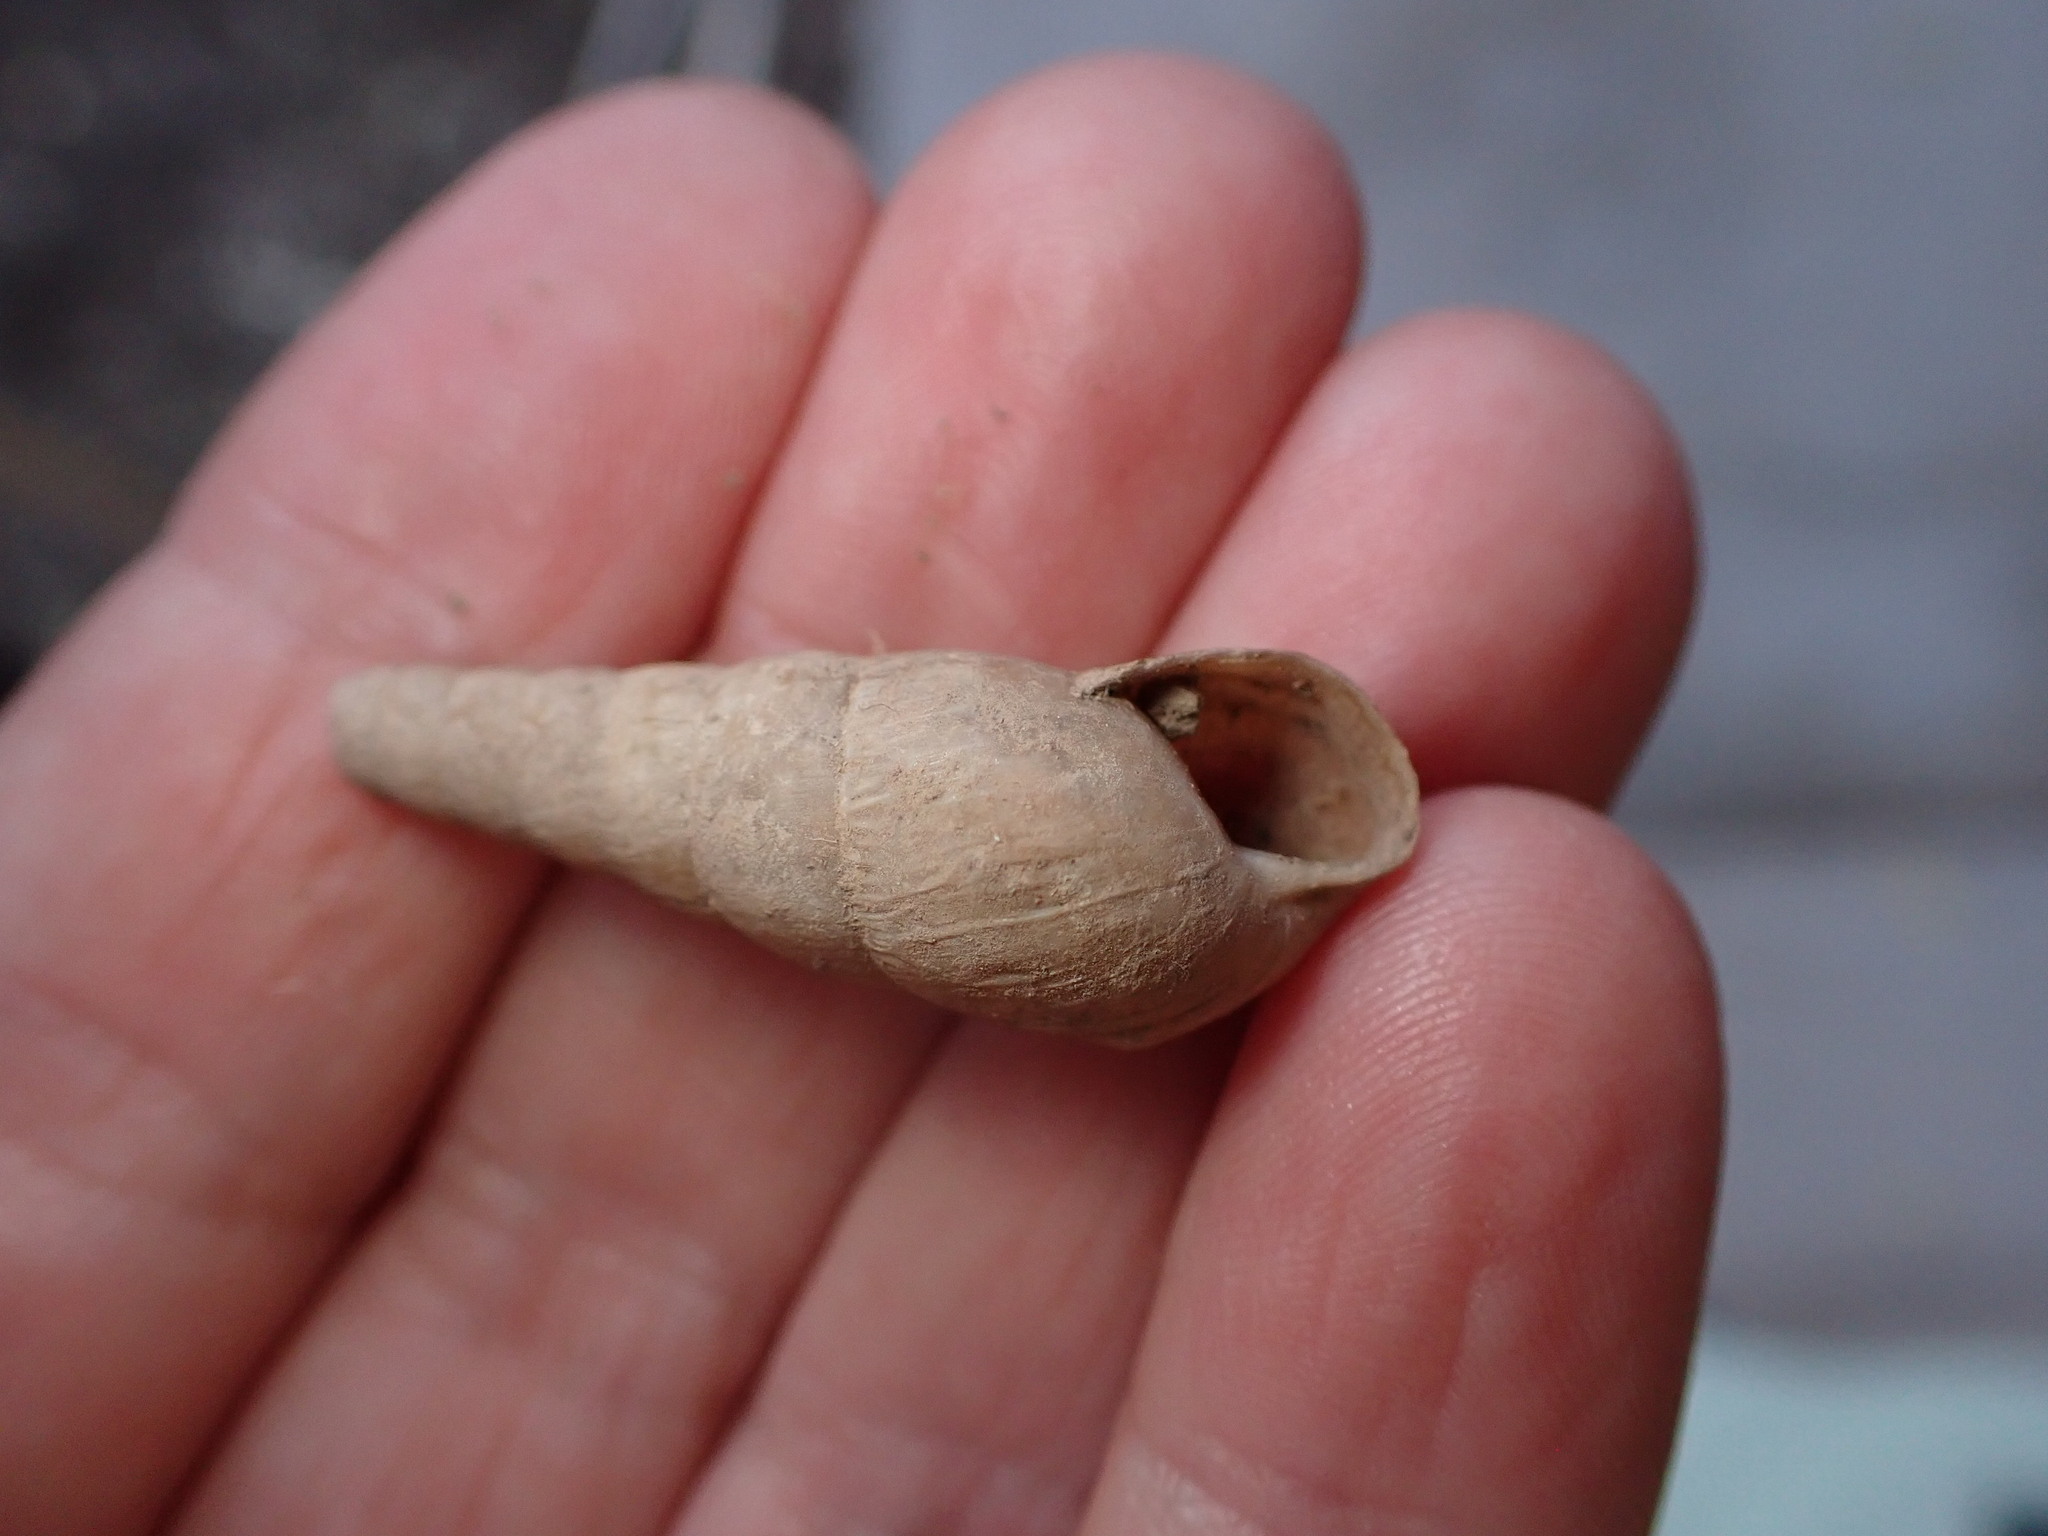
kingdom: Animalia
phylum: Mollusca
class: Gastropoda
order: Stylommatophora
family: Achatinidae
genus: Rumina
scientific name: Rumina decollata
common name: Decollate snail
